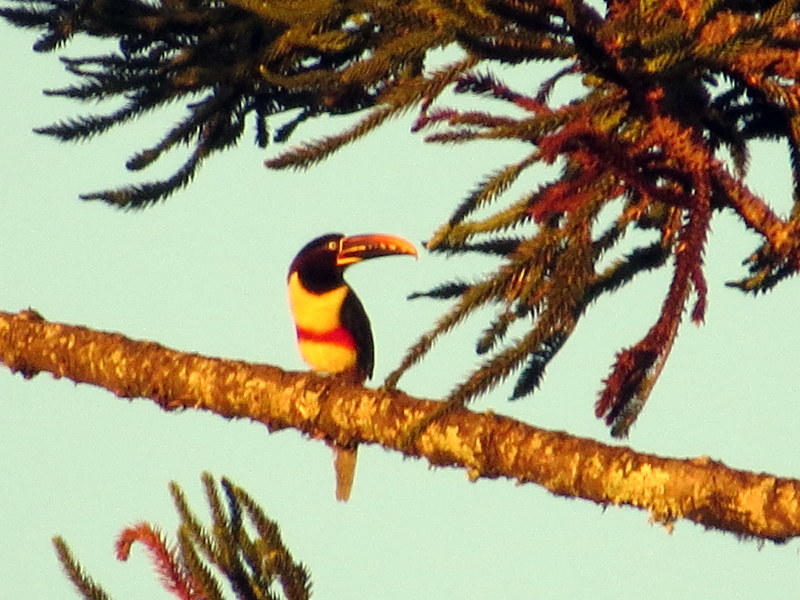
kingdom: Animalia
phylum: Chordata
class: Aves
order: Piciformes
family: Ramphastidae
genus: Pteroglossus
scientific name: Pteroglossus castanotis
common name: Chestnut-eared aracari
